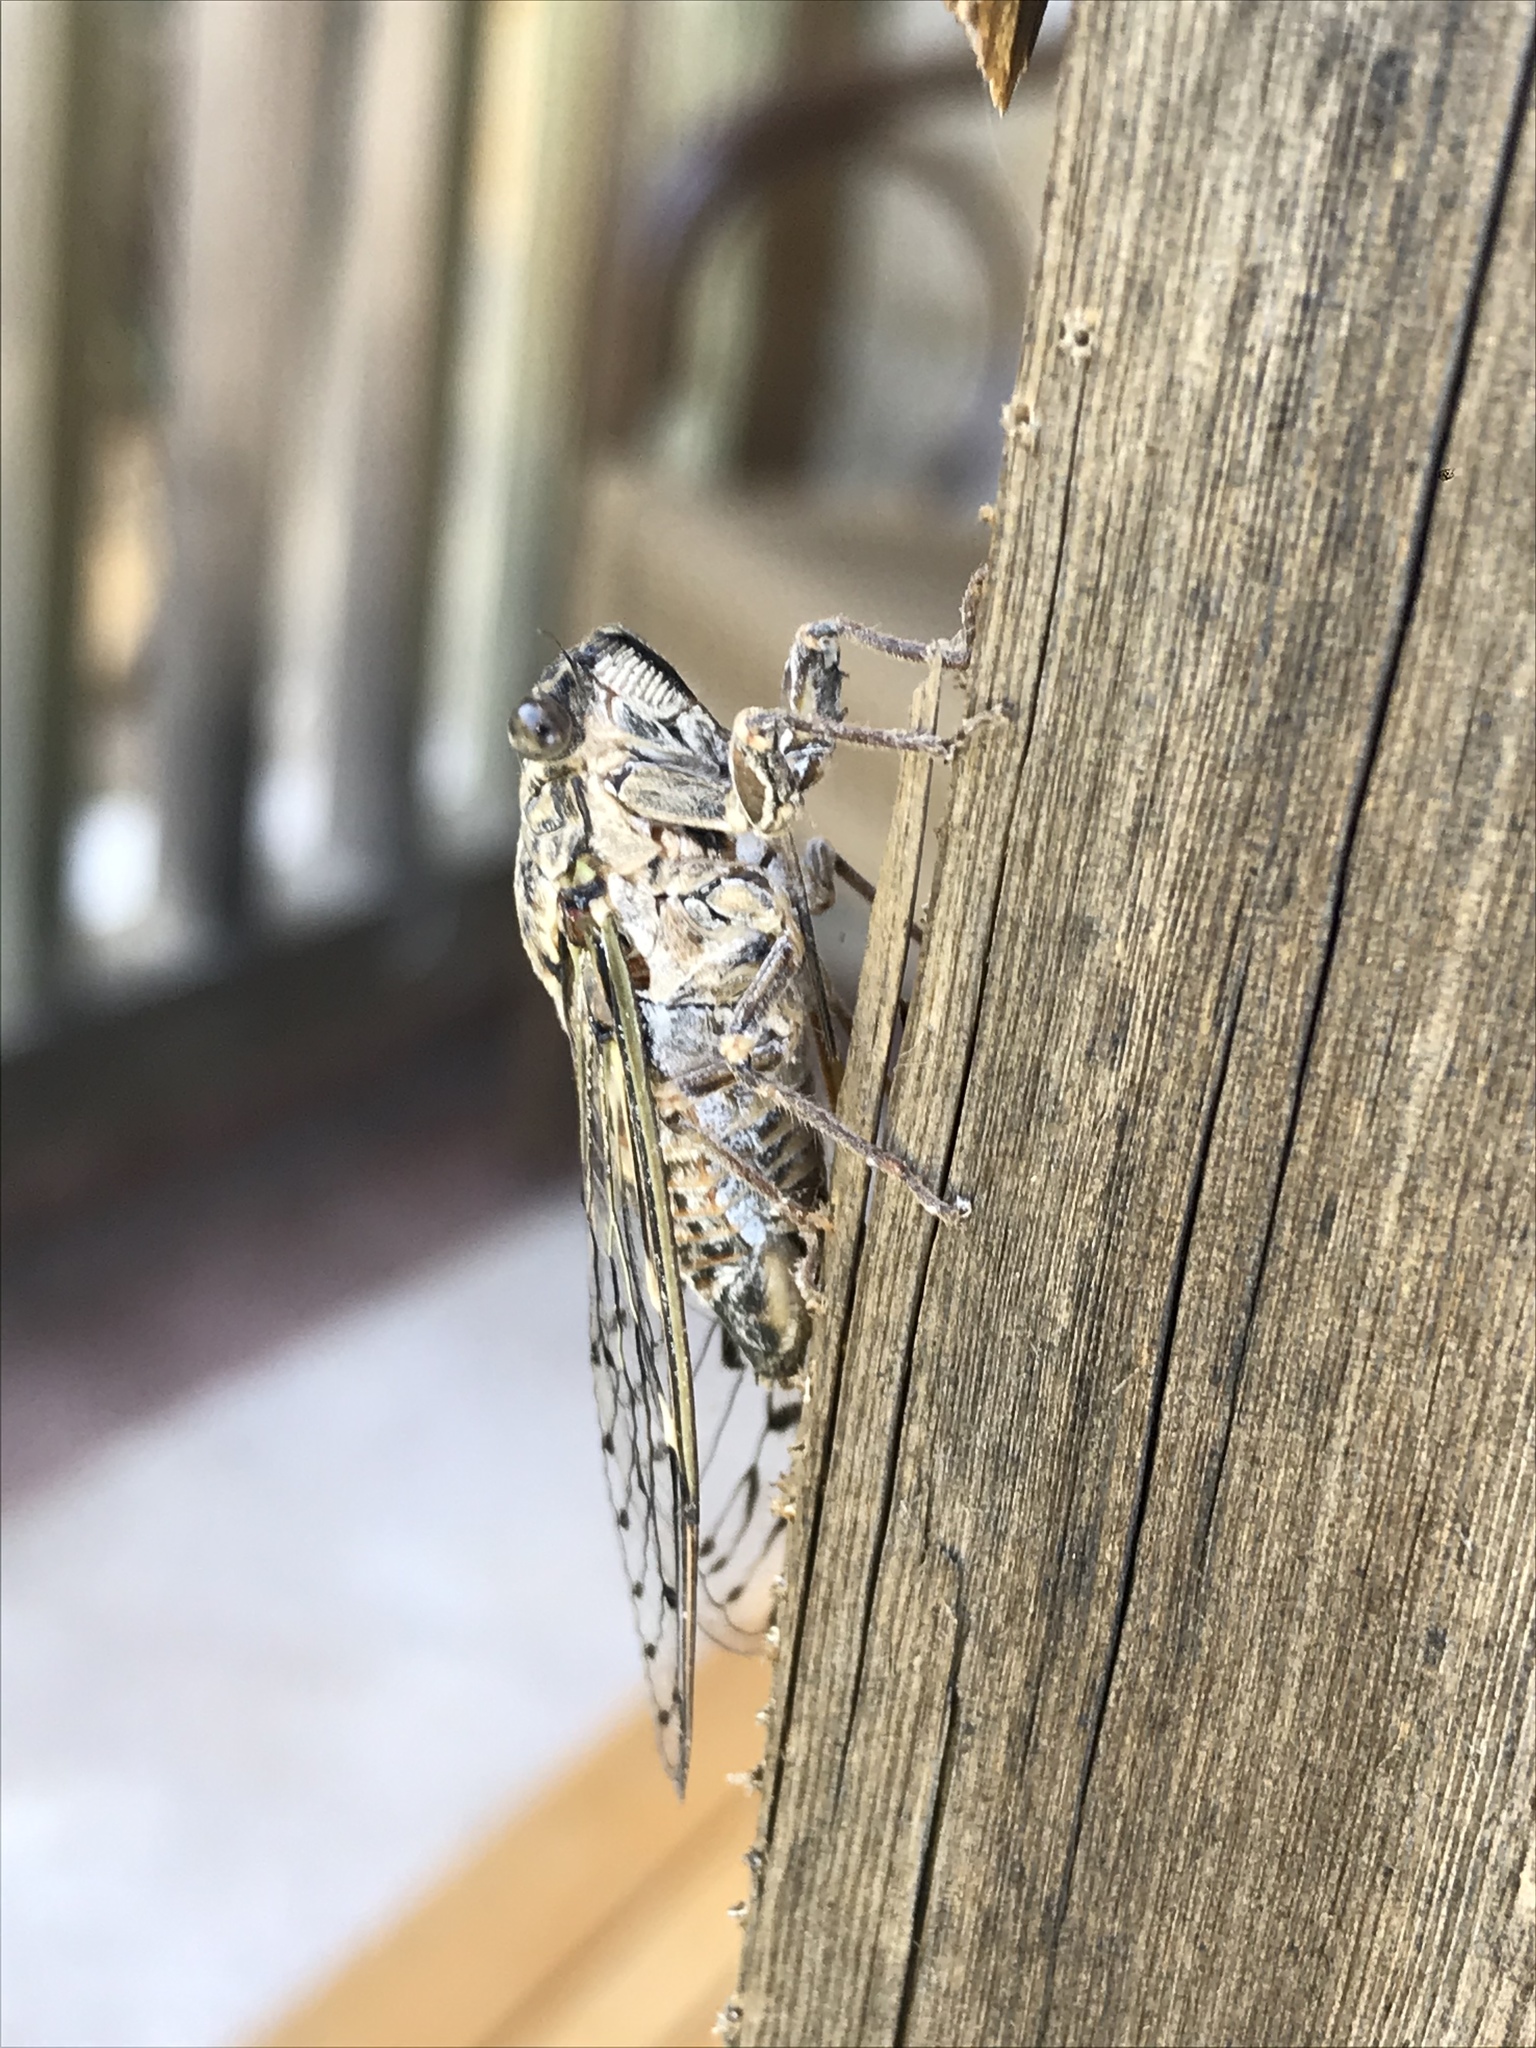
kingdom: Animalia
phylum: Arthropoda
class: Insecta
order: Hemiptera
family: Cicadidae
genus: Cicada
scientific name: Cicada mordoganensis
